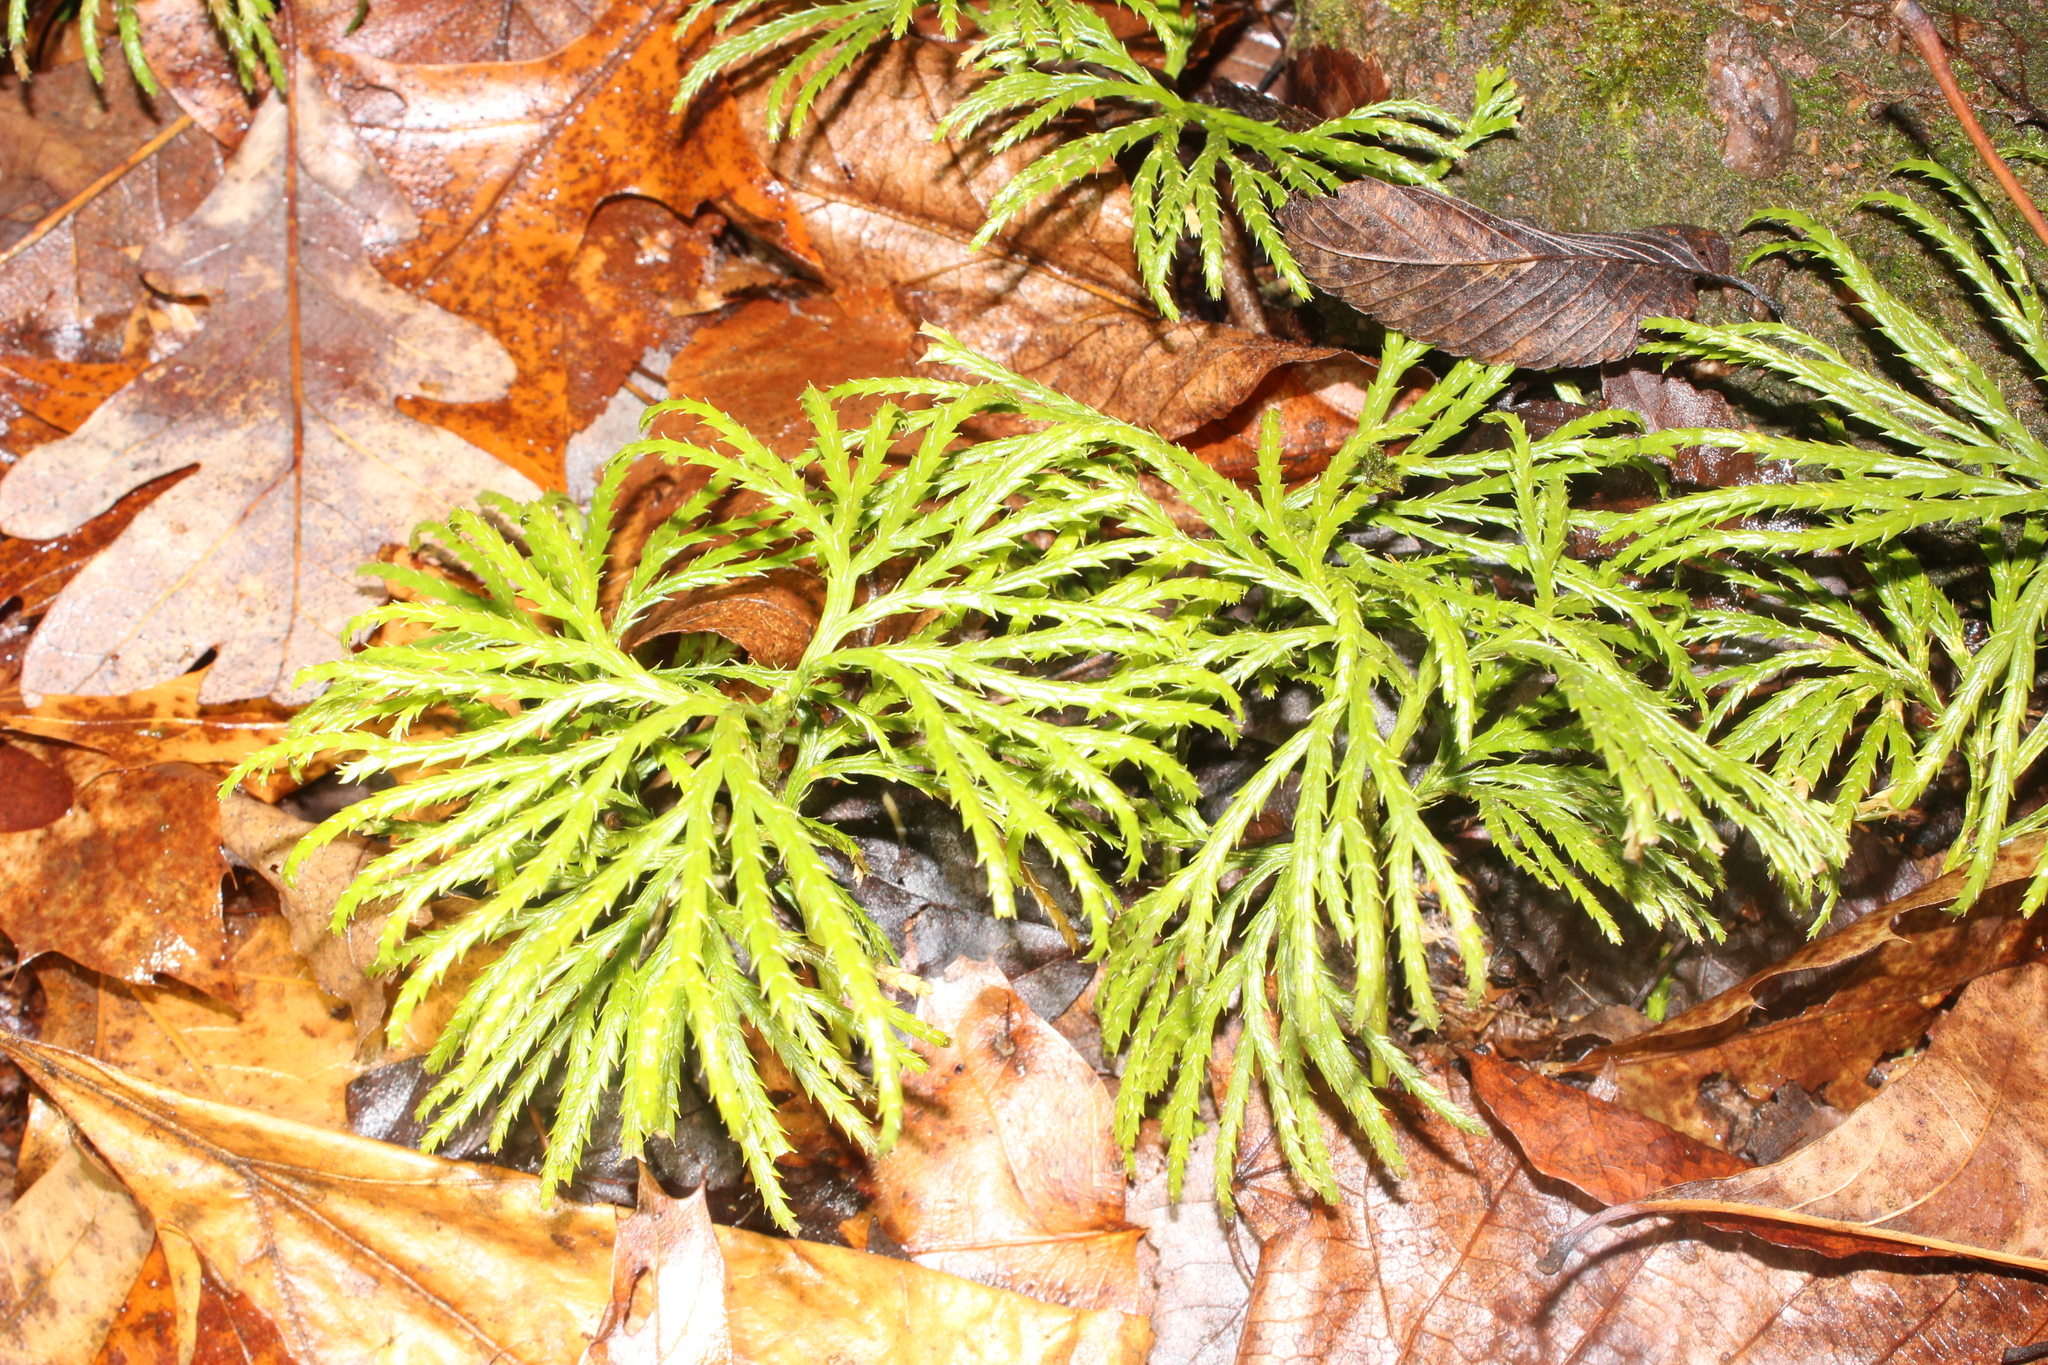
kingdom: Plantae
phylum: Tracheophyta
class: Lycopodiopsida
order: Lycopodiales
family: Lycopodiaceae
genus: Diphasiastrum
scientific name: Diphasiastrum digitatum
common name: Southern running-pine
